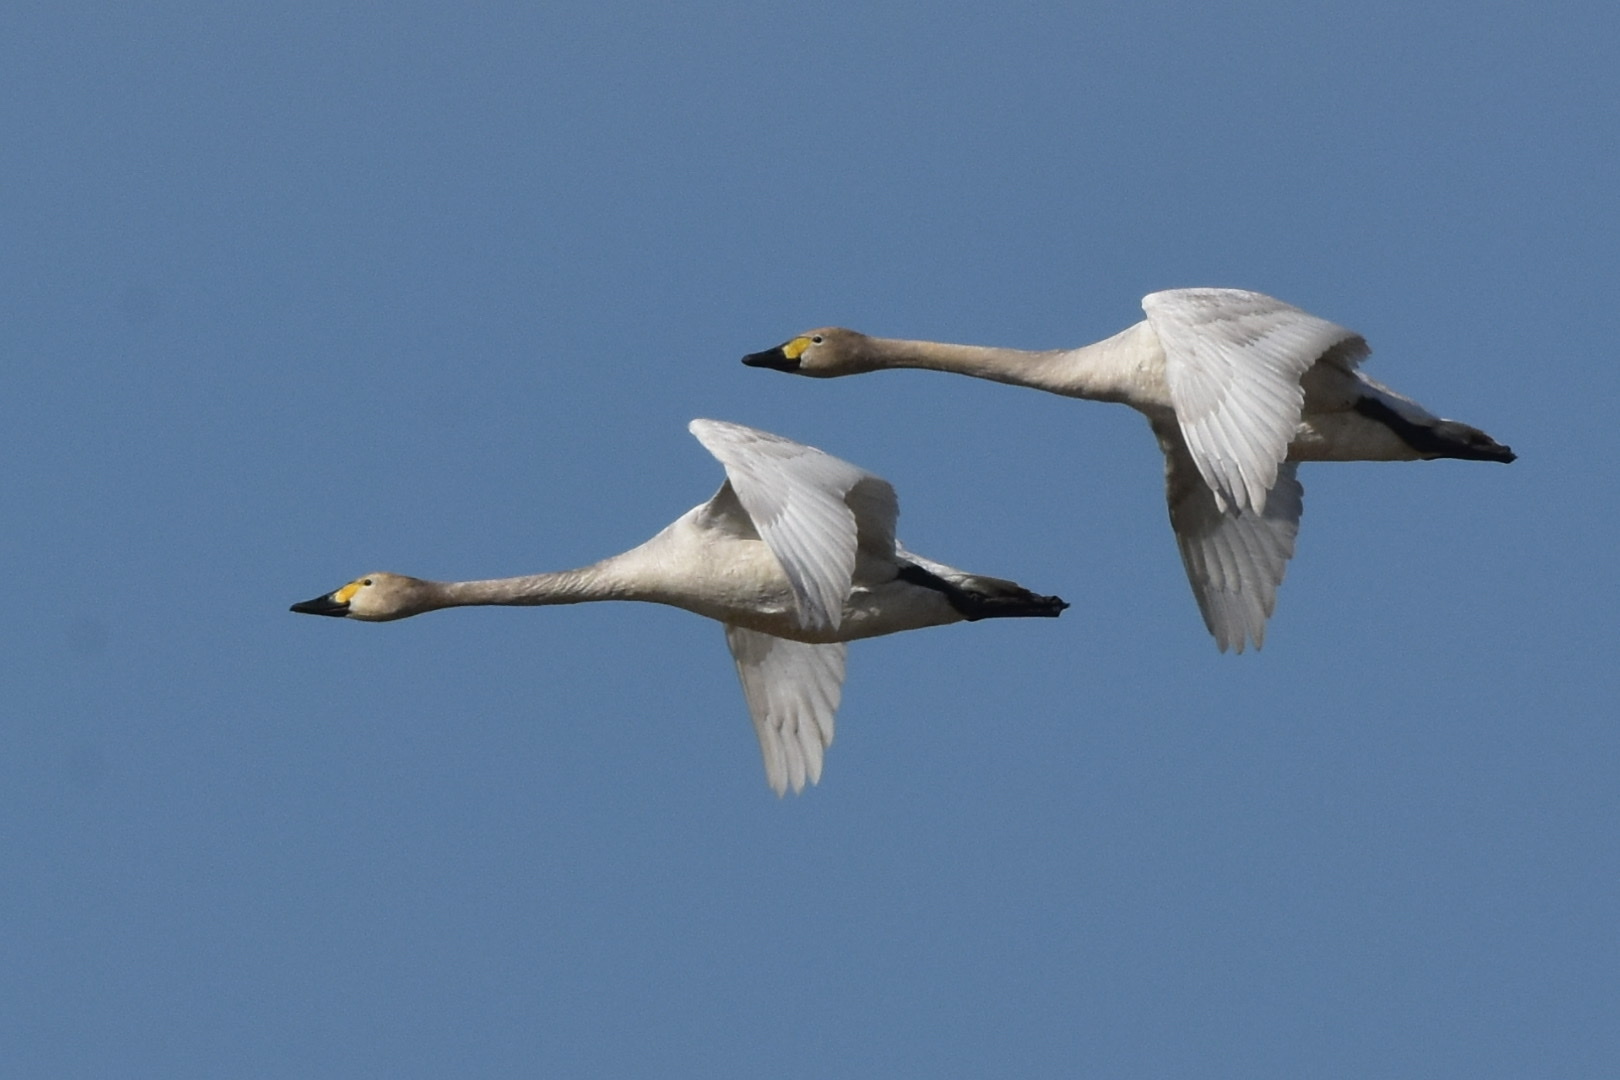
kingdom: Animalia
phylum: Chordata
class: Aves
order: Anseriformes
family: Anatidae
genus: Cygnus
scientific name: Cygnus columbianus
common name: Tundra swan
